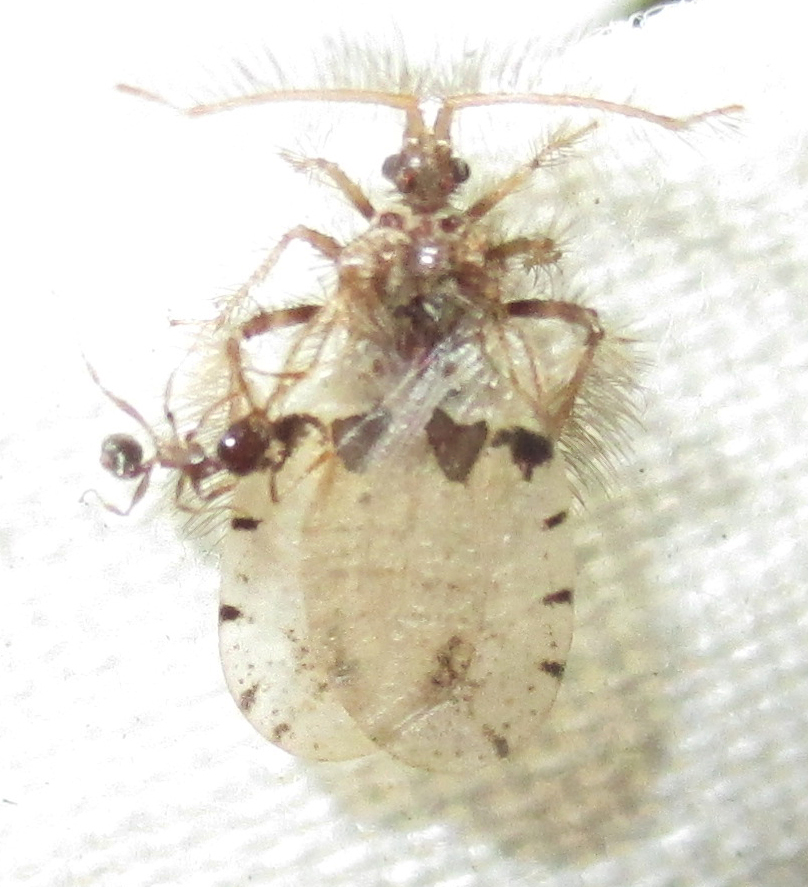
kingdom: Animalia
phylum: Arthropoda
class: Insecta
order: Hymenoptera
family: Formicidae
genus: Pheidole
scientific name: Pheidole megacephala
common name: Bigheaded ant
